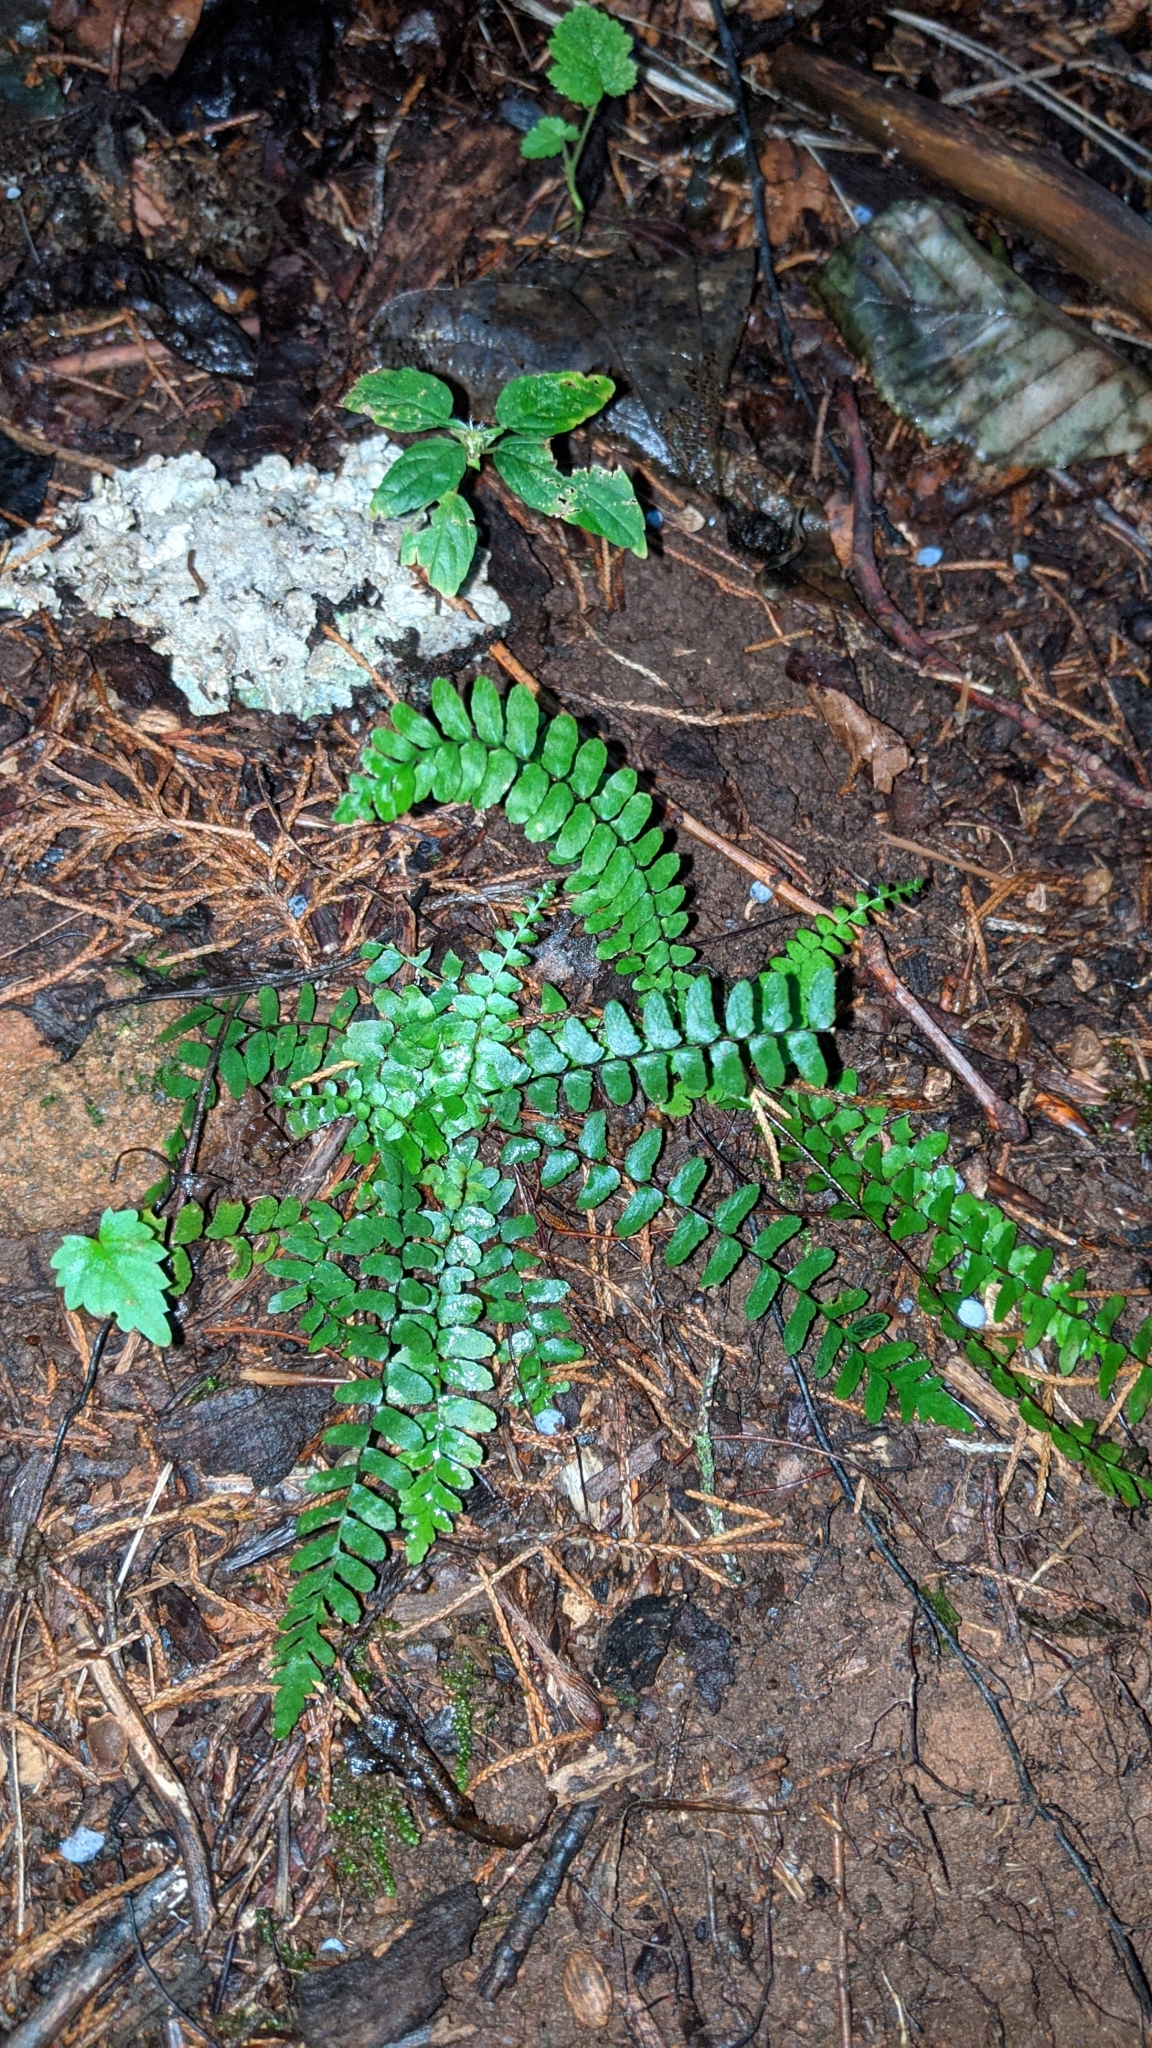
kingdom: Plantae
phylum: Tracheophyta
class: Polypodiopsida
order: Polypodiales
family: Aspleniaceae
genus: Asplenium
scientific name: Asplenium platyneuron
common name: Ebony spleenwort
